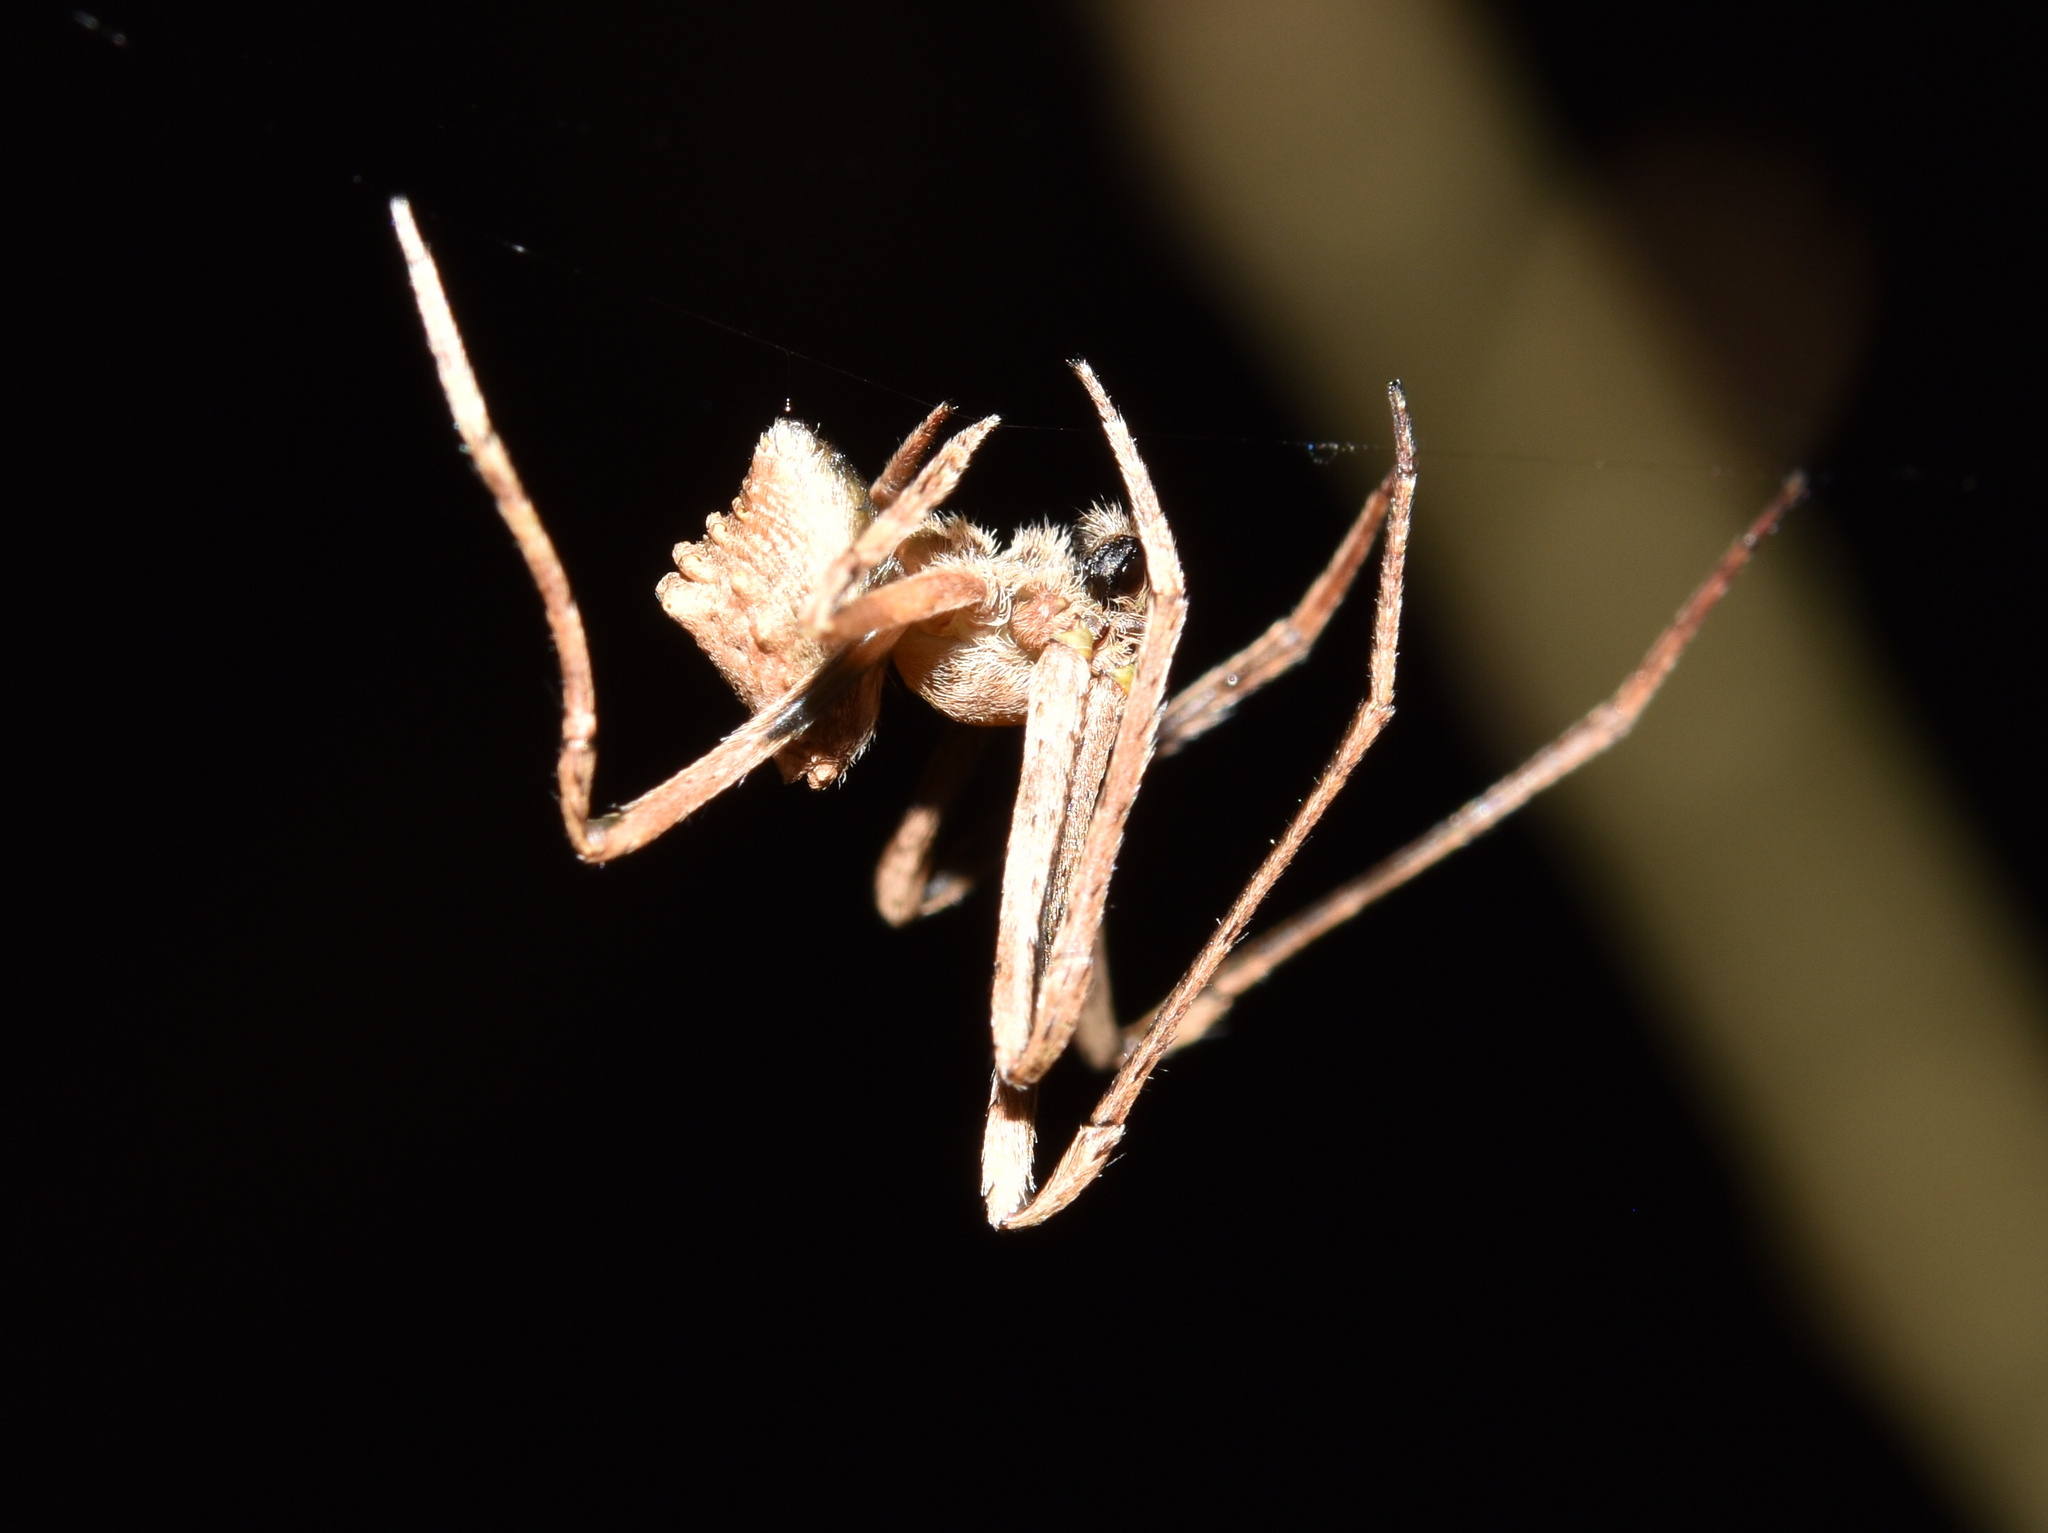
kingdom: Animalia
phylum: Arthropoda
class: Arachnida
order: Araneae
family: Araneidae
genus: Cyphalonotus
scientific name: Cyphalonotus larvatus
